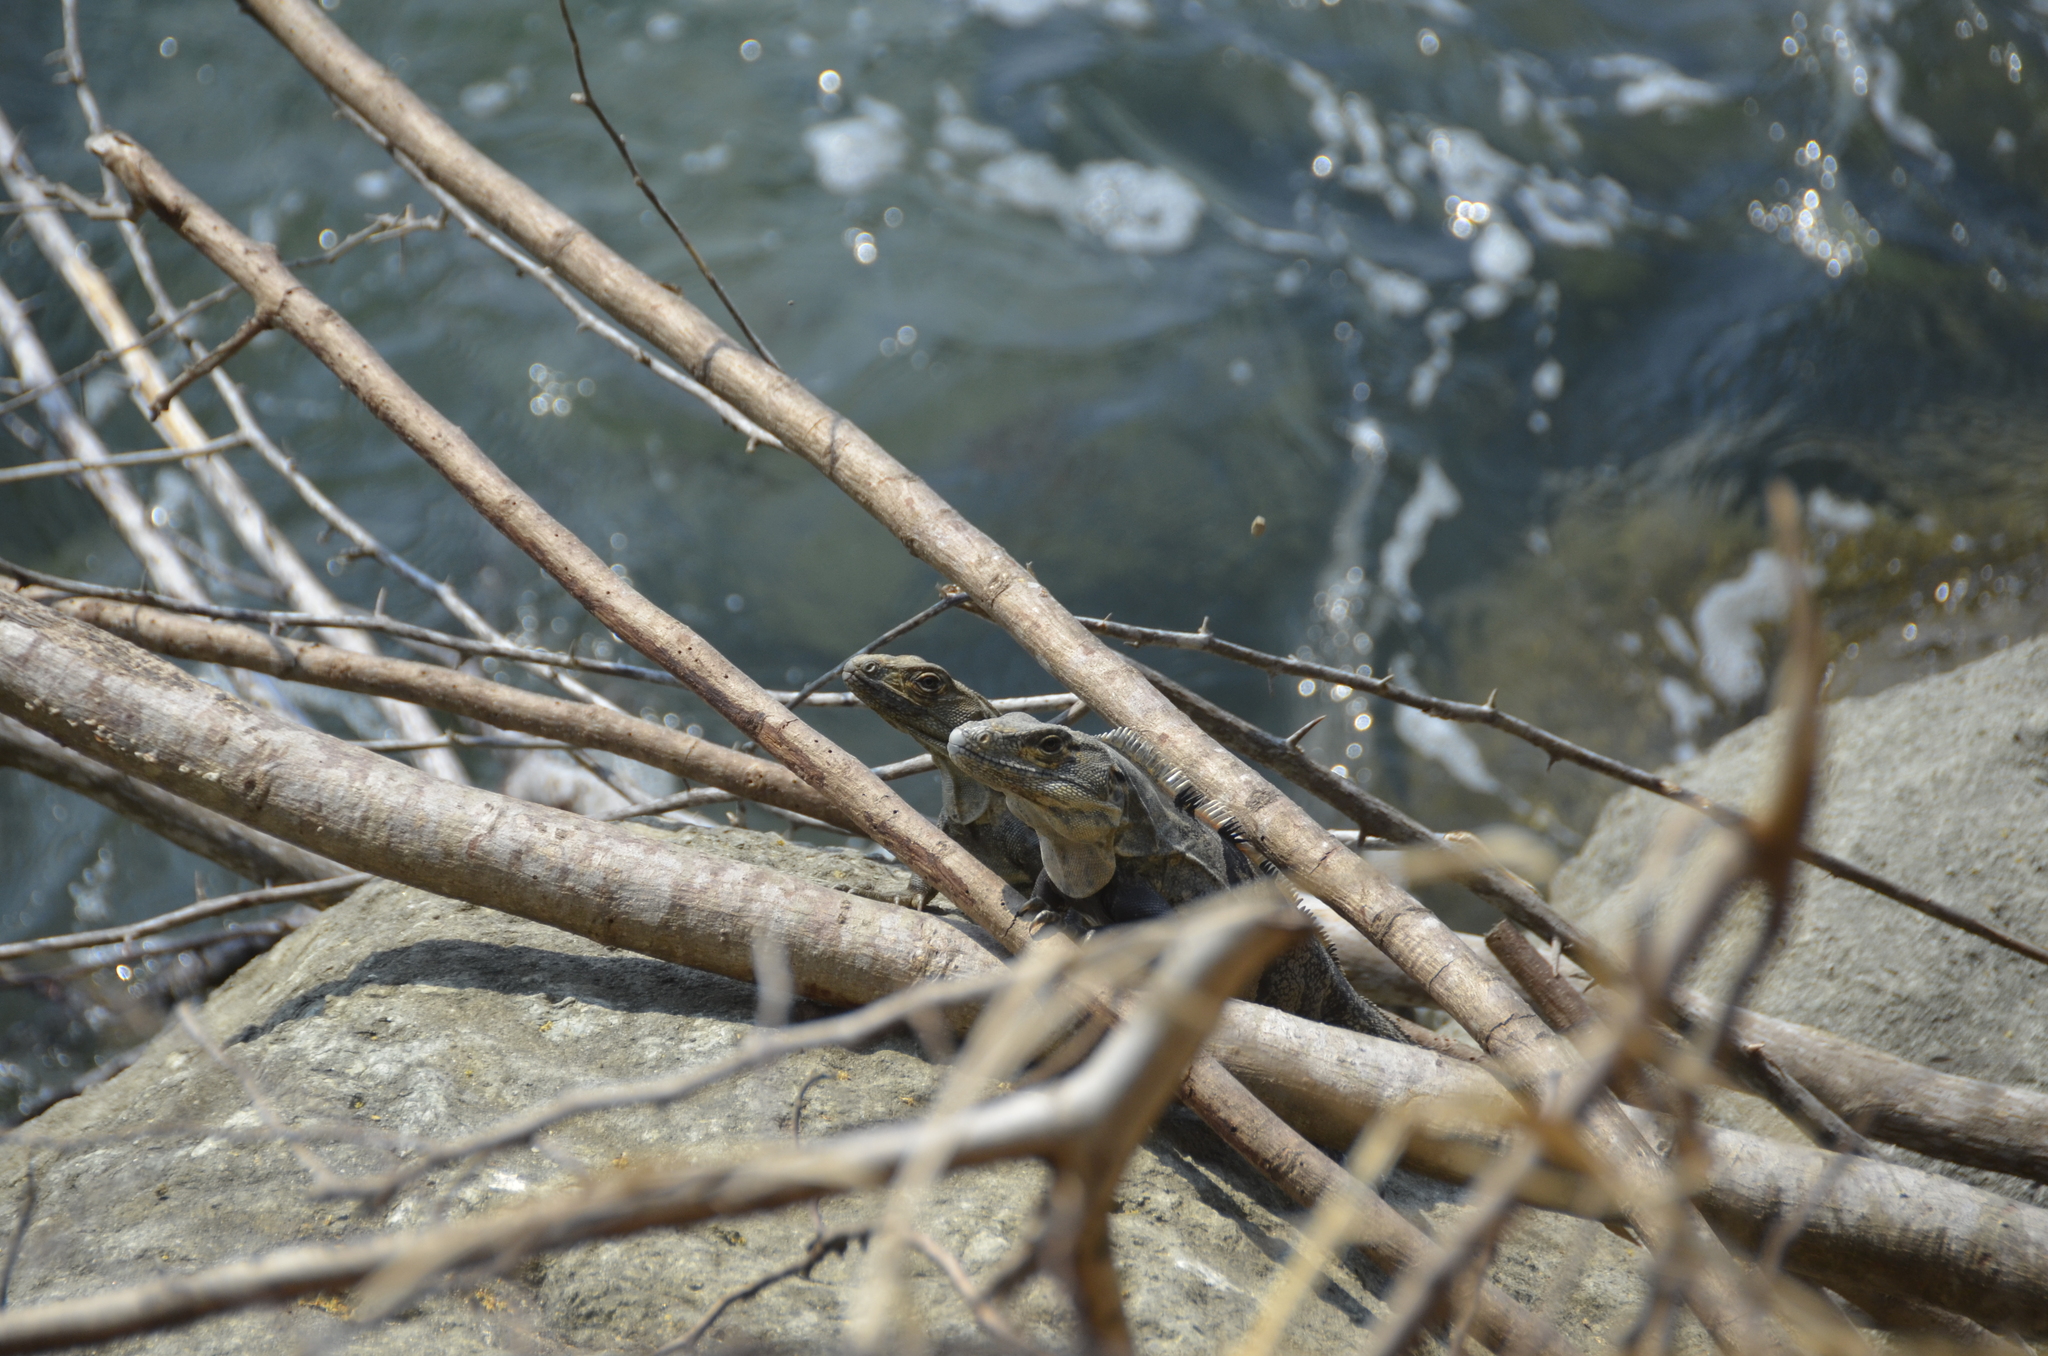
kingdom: Animalia
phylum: Chordata
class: Squamata
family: Iguanidae
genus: Ctenosaura
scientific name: Ctenosaura similis
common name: Black spiny-tailed iguana
